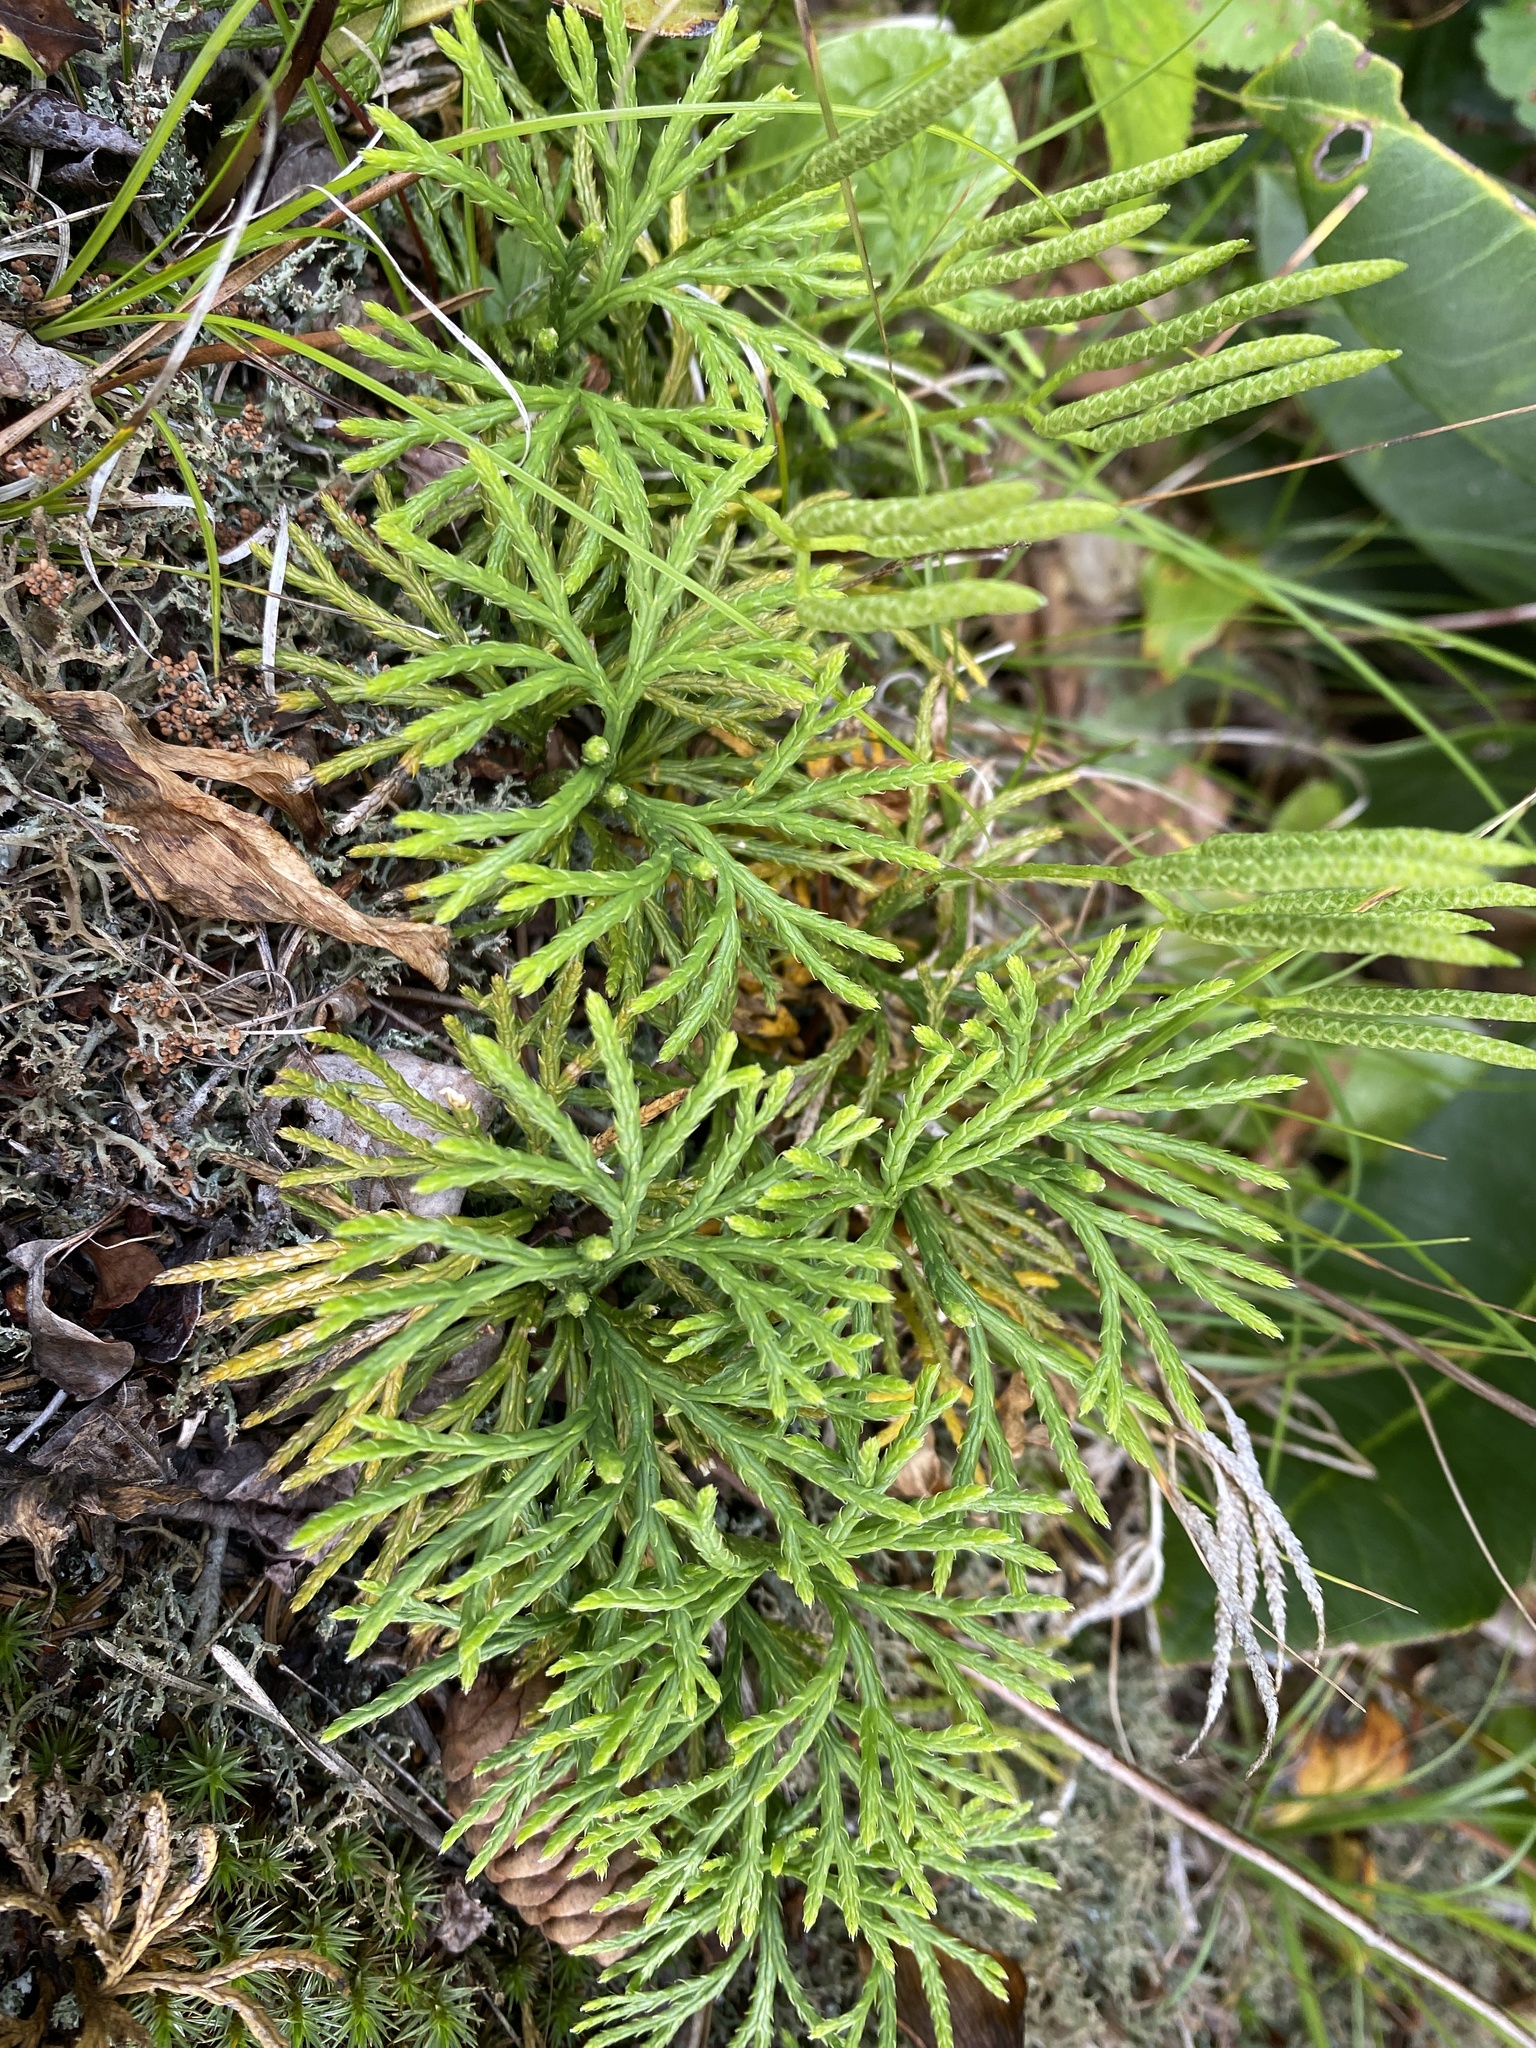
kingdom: Plantae
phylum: Tracheophyta
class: Lycopodiopsida
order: Lycopodiales
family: Lycopodiaceae
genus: Diphasiastrum
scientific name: Diphasiastrum digitatum
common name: Southern running-pine
